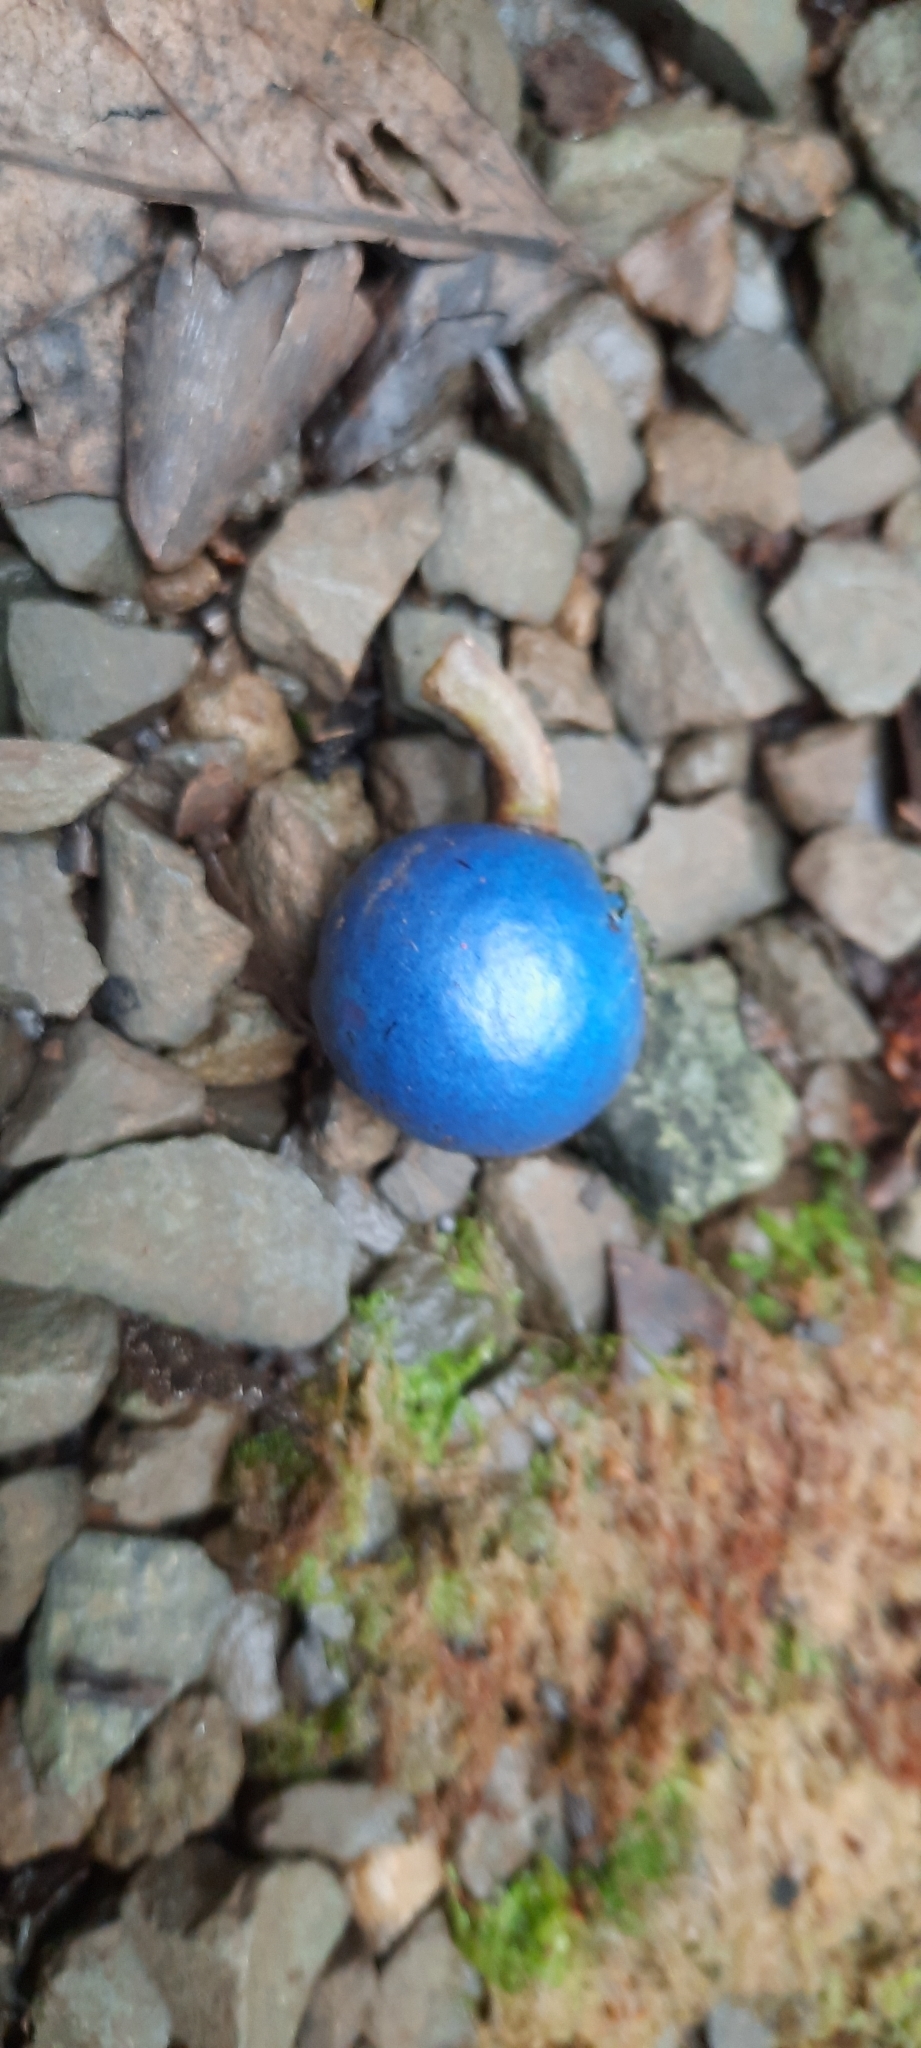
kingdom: Plantae
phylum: Tracheophyta
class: Magnoliopsida
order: Oxalidales
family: Elaeocarpaceae
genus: Elaeocarpus
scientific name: Elaeocarpus angustifolius
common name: Blue marble tree
